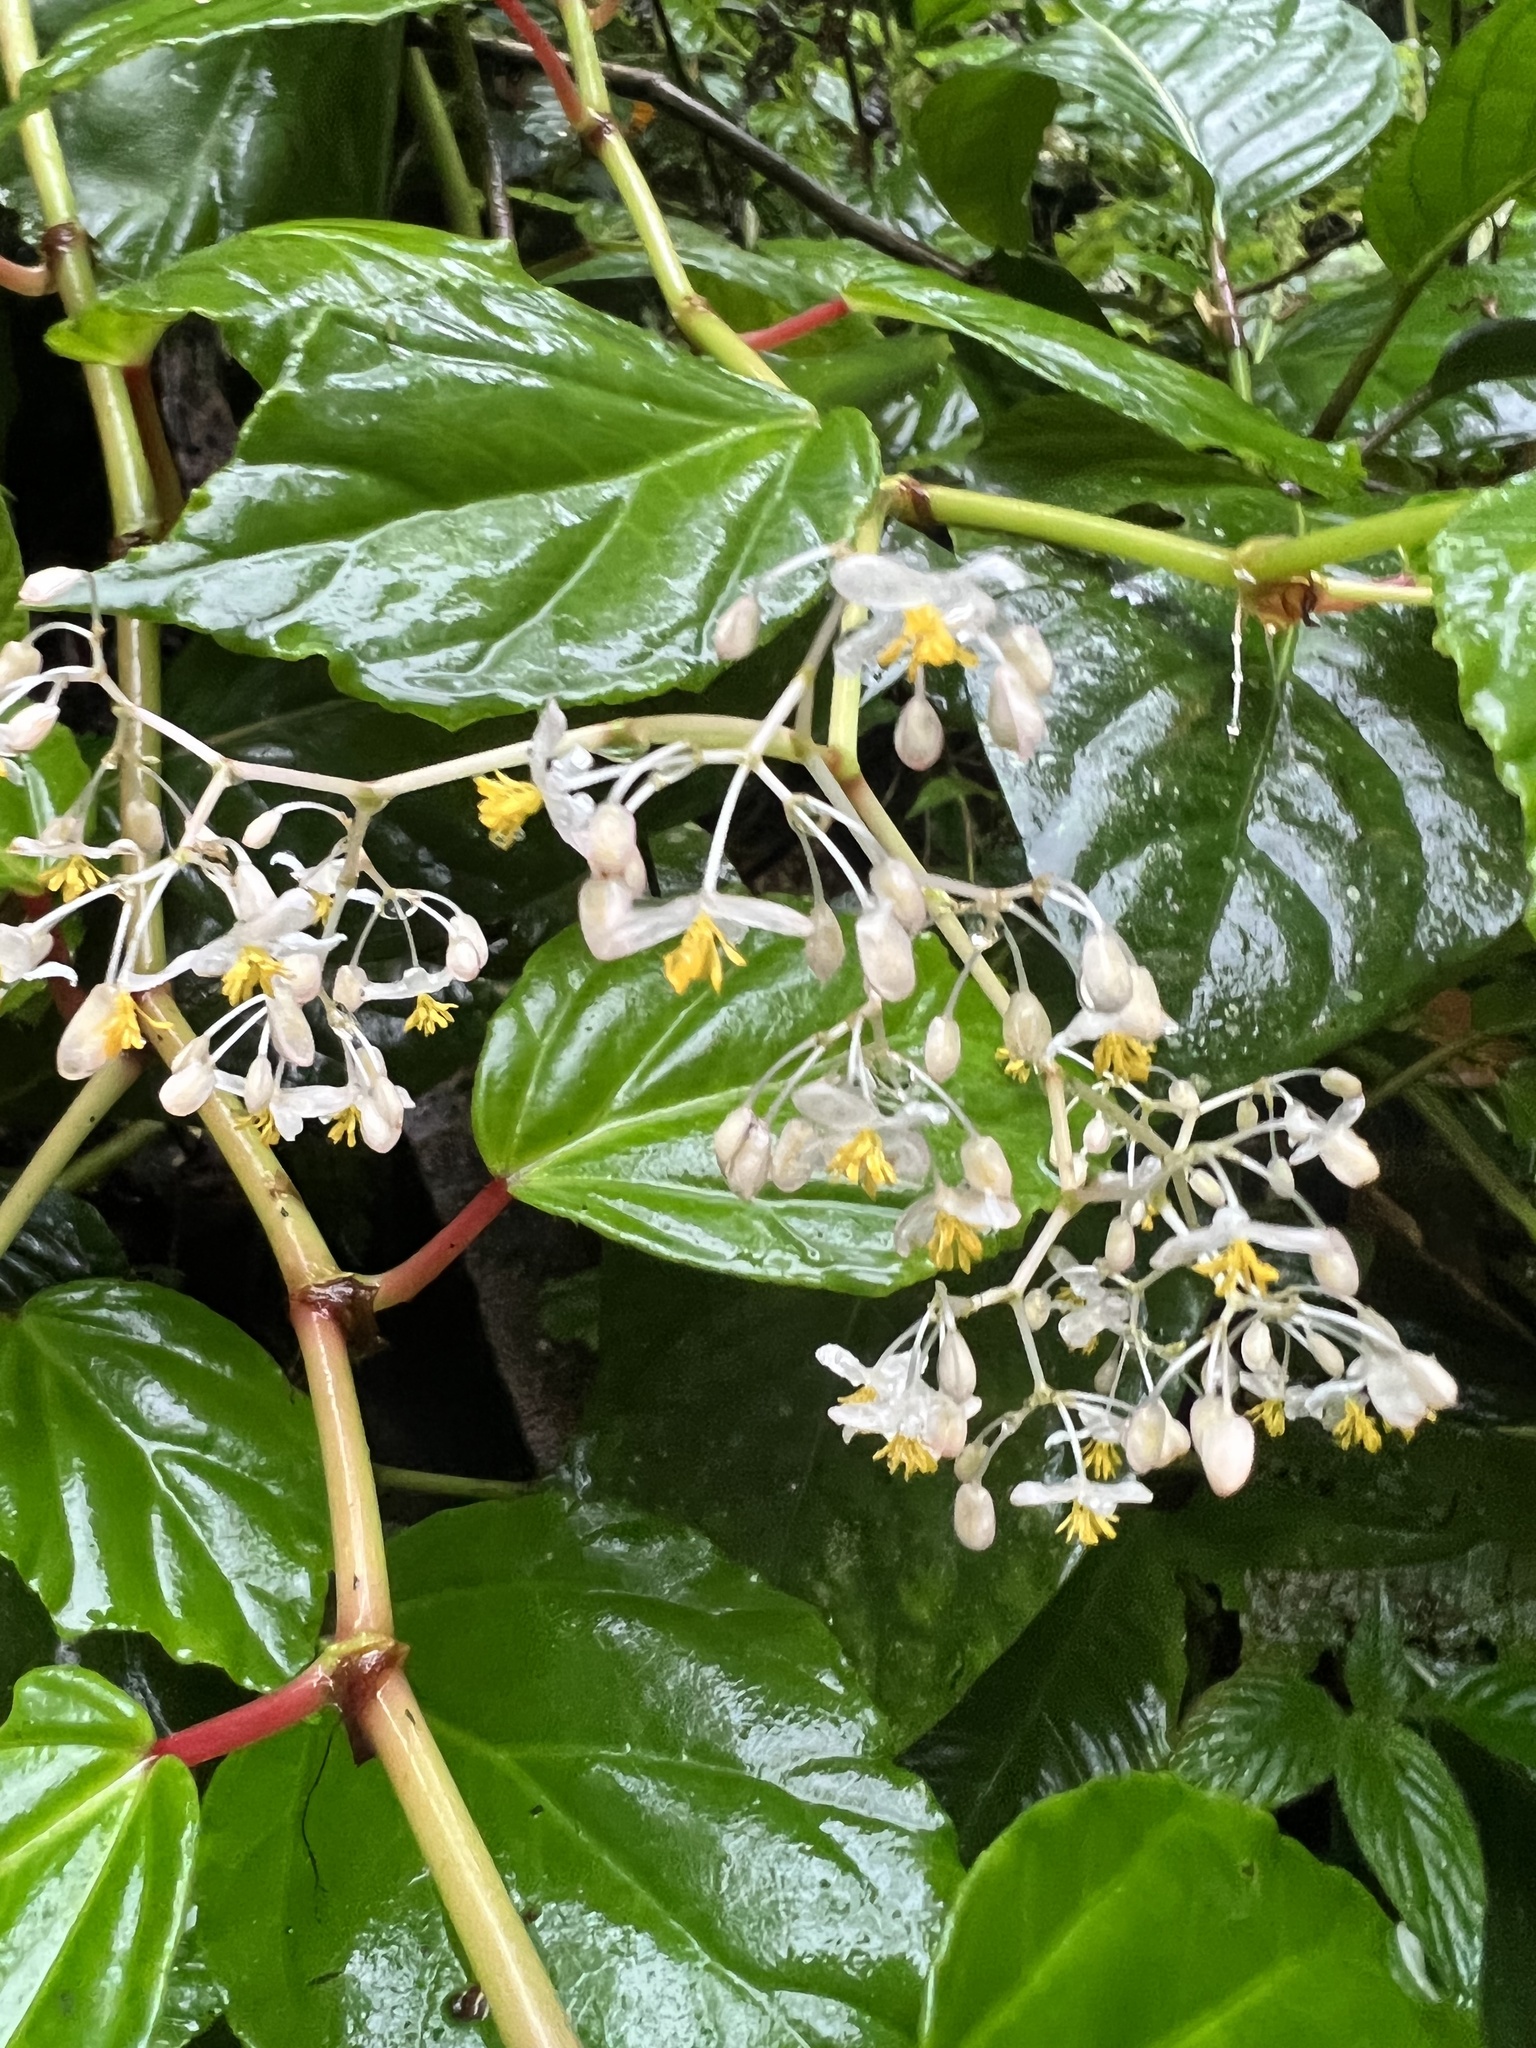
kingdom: Plantae
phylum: Tracheophyta
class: Magnoliopsida
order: Cucurbitales
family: Begoniaceae
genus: Begonia
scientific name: Begonia glabra
